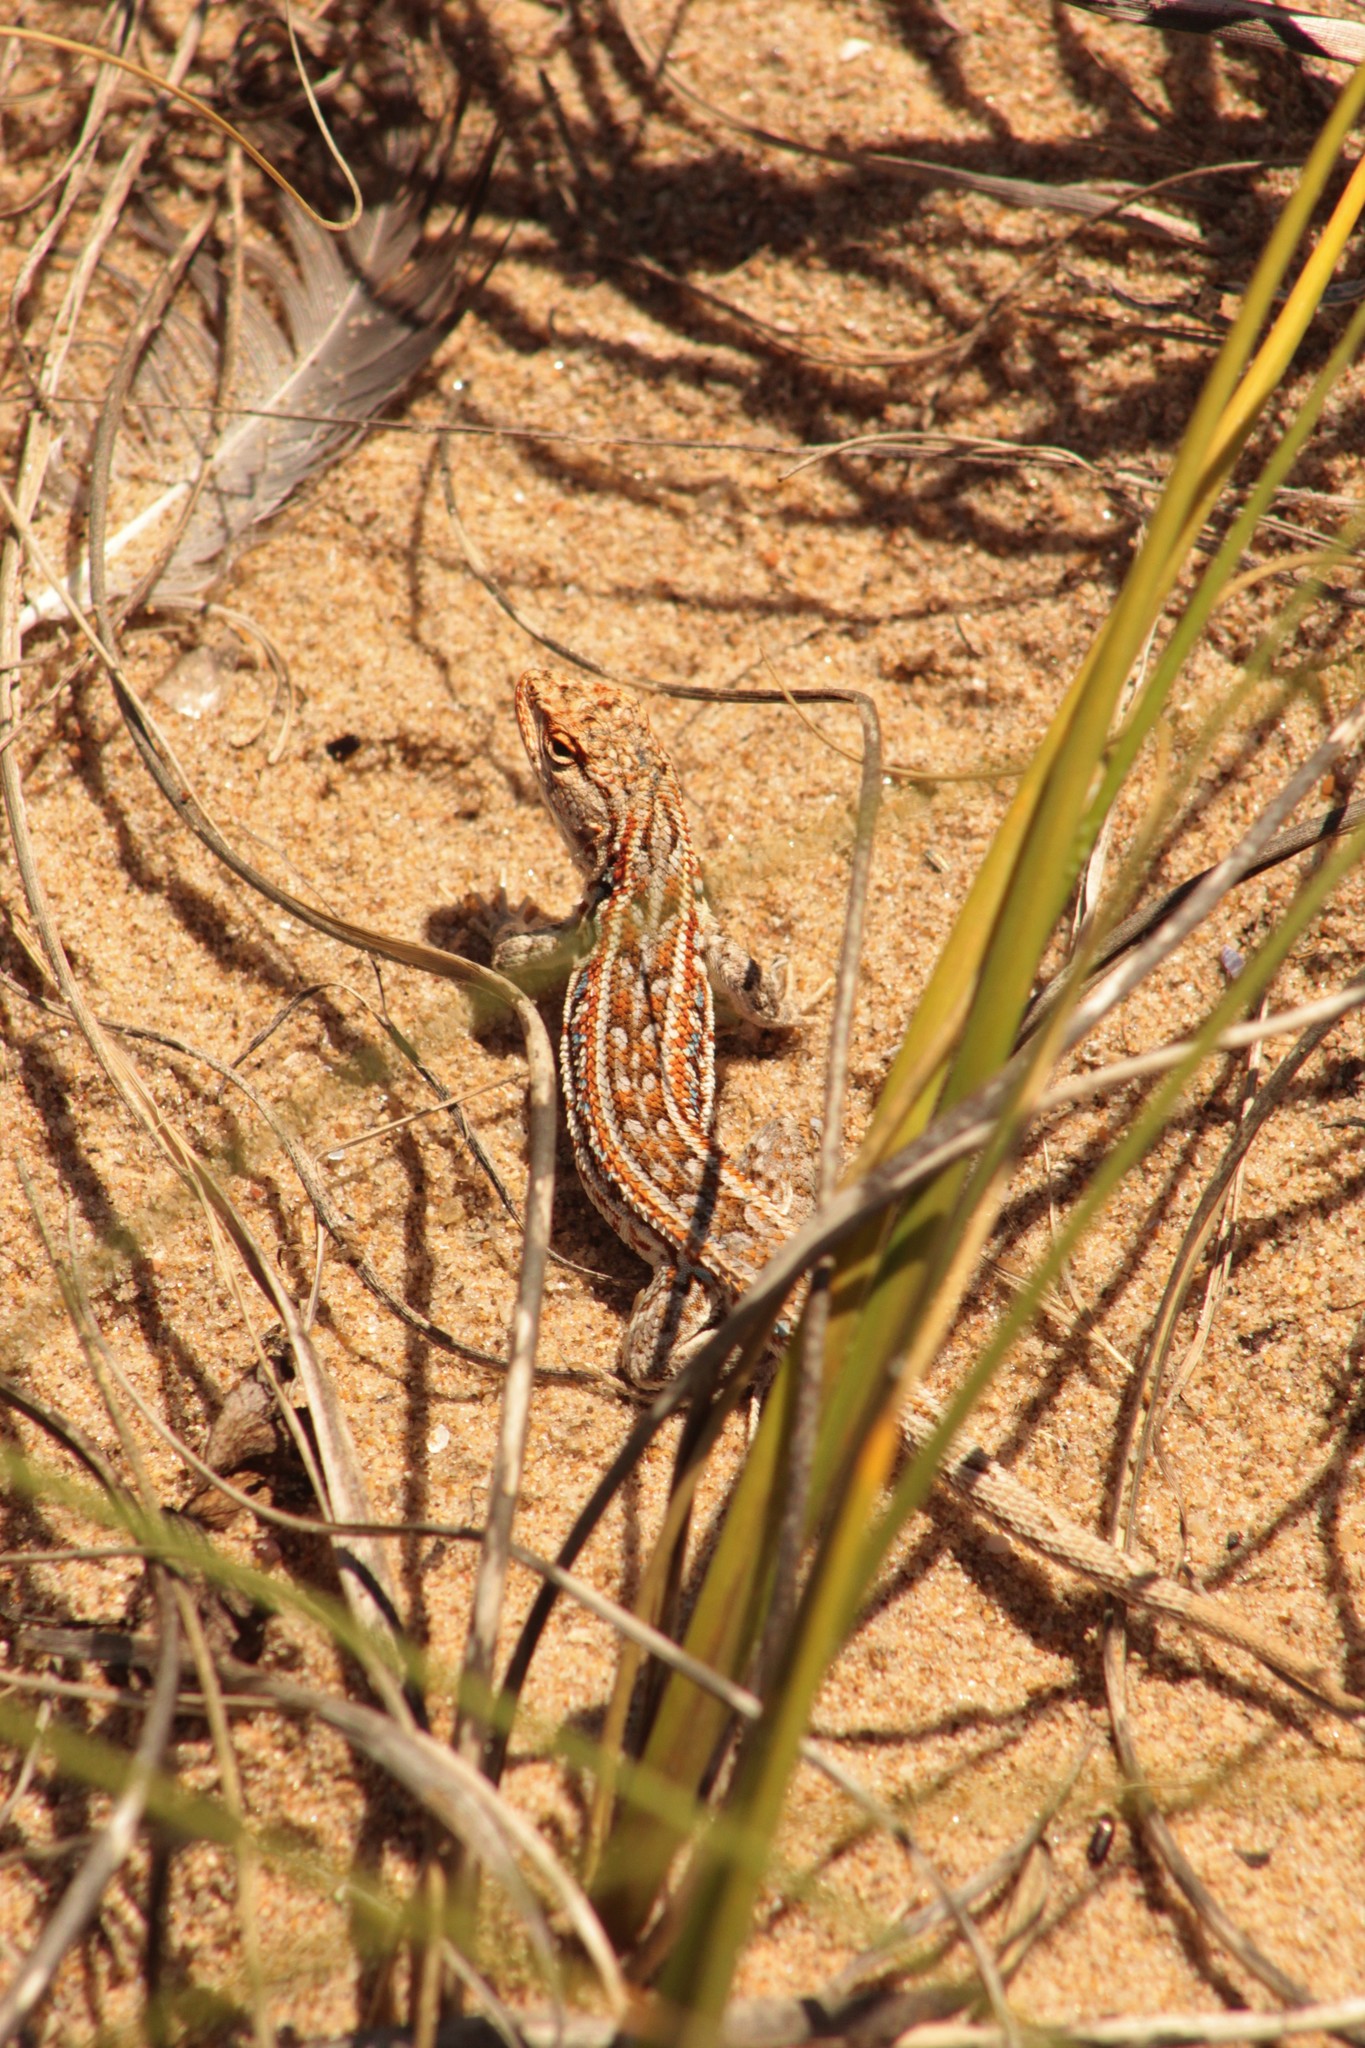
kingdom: Animalia
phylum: Chordata
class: Squamata
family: Liolaemidae
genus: Liolaemus
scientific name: Liolaemus wiegmannii
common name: Wiegmann's tree iguana
